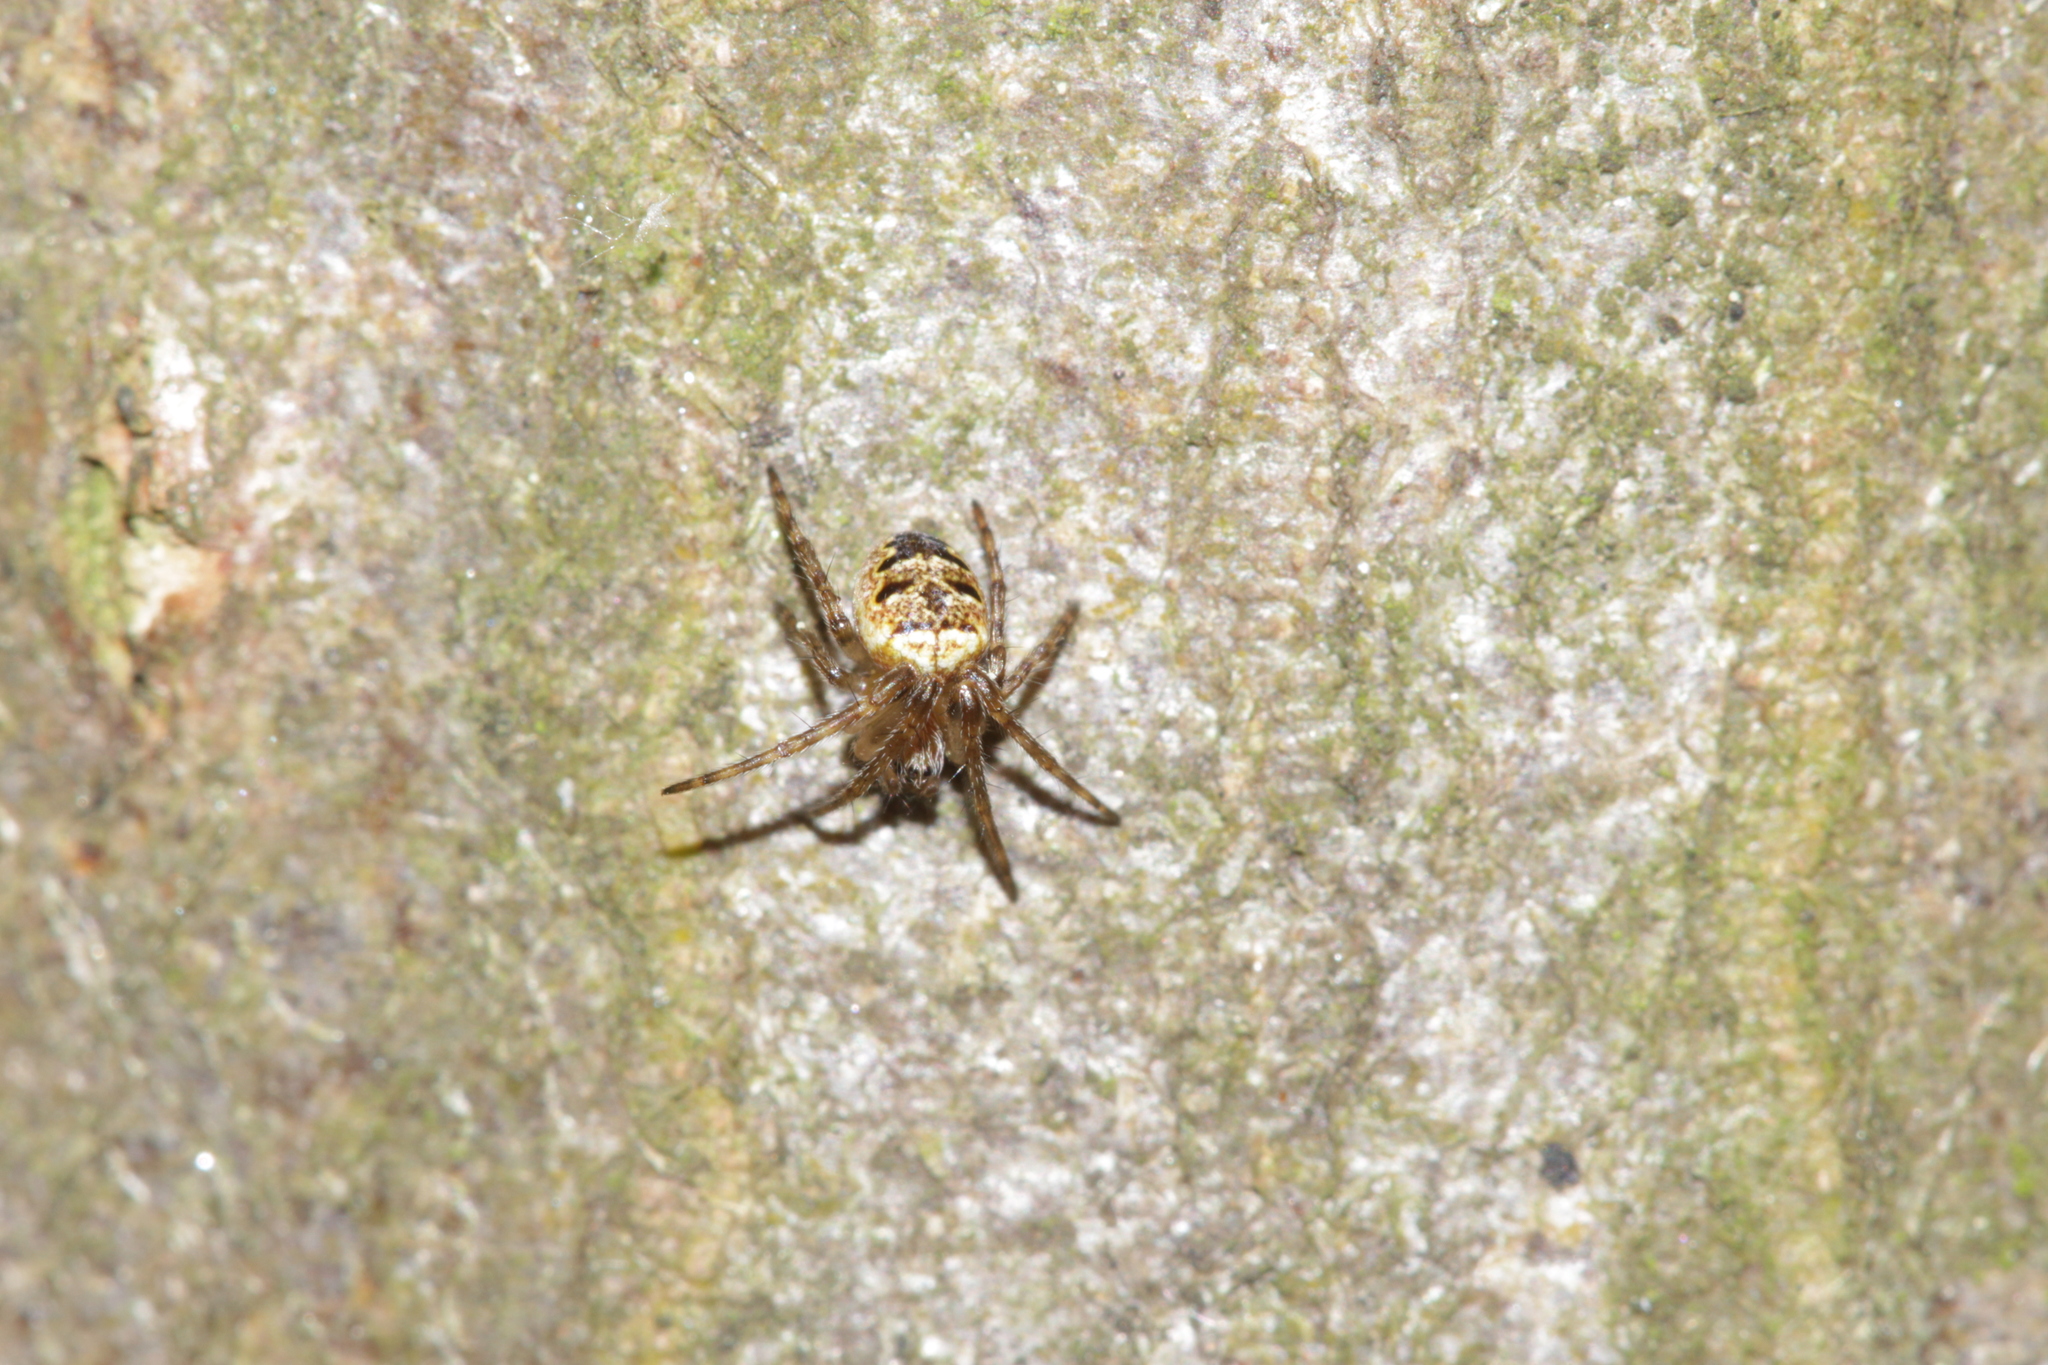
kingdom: Animalia
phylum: Arthropoda
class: Arachnida
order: Araneae
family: Araneidae
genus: Zilla
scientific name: Zilla diodia
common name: Zilla diodia
